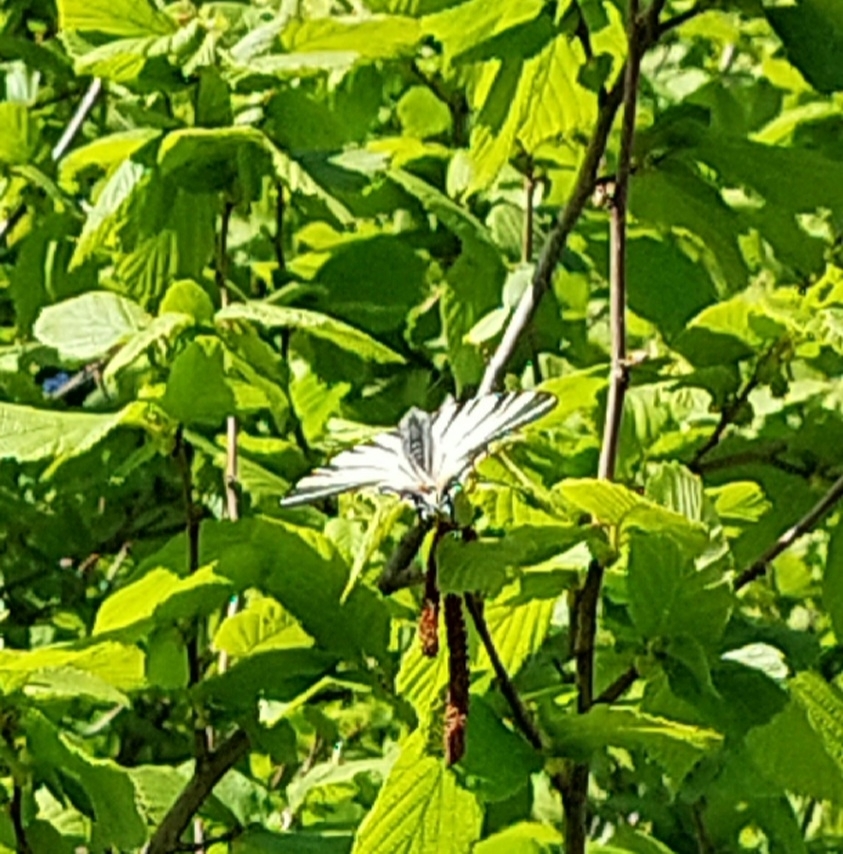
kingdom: Animalia
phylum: Arthropoda
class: Insecta
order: Lepidoptera
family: Papilionidae
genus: Iphiclides
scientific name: Iphiclides podalirius
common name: Scarce swallowtail
